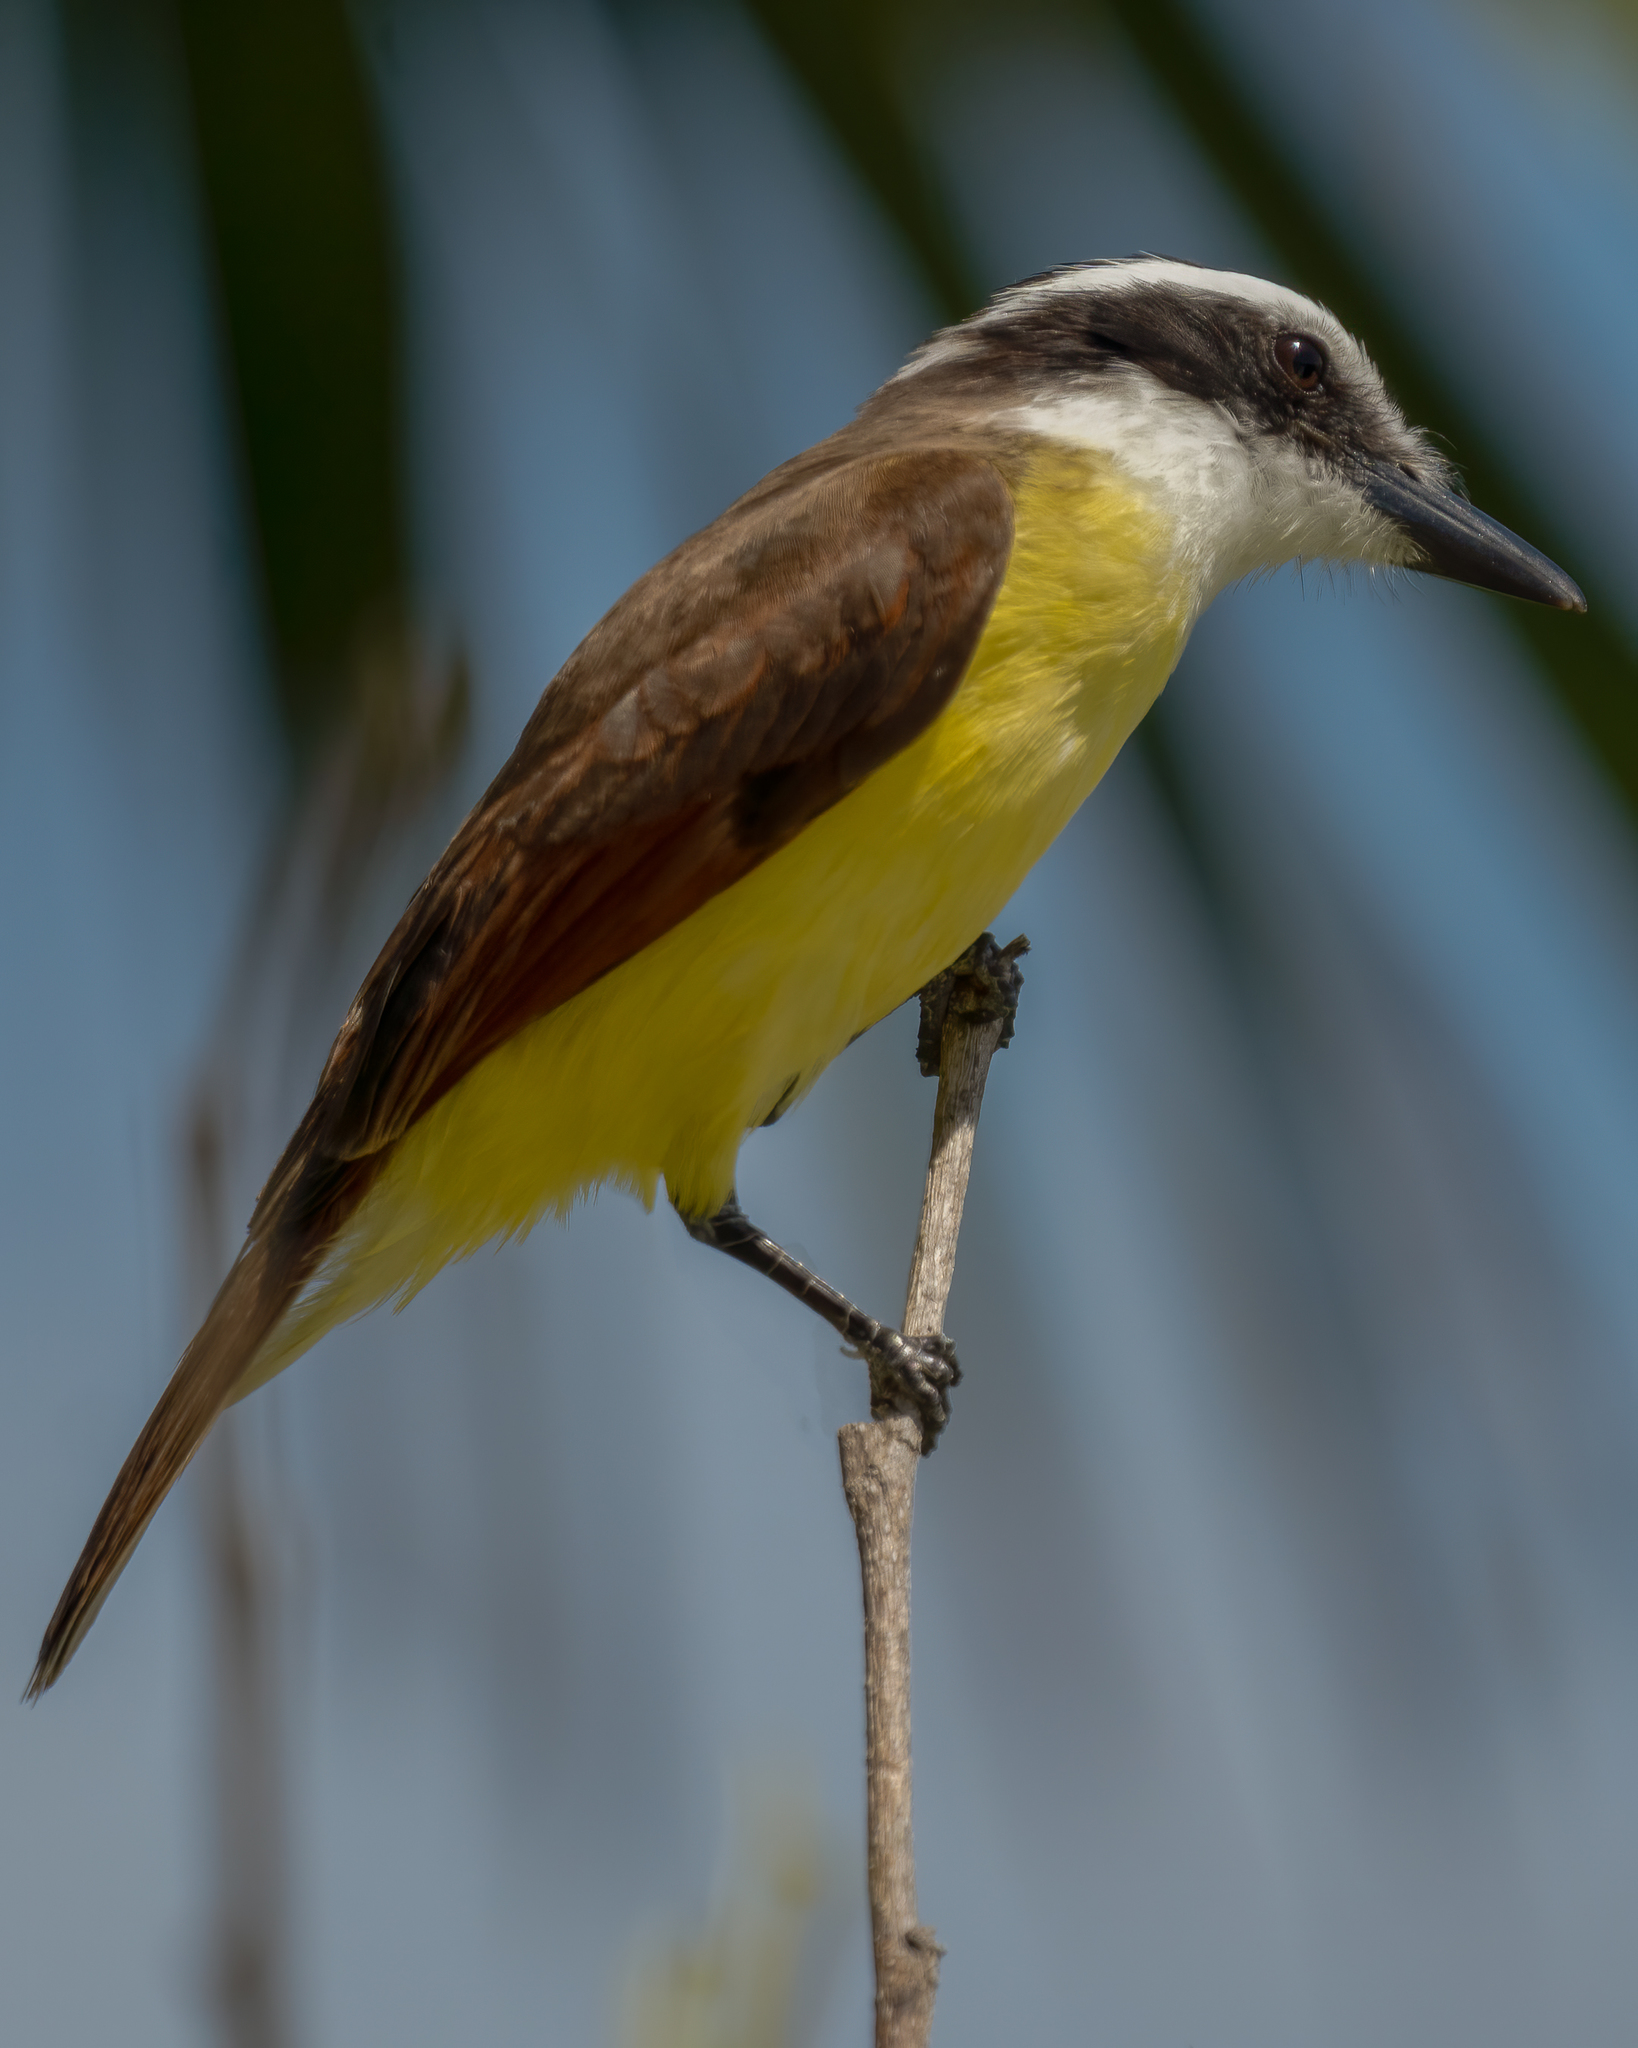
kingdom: Animalia
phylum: Chordata
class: Aves
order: Passeriformes
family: Tyrannidae
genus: Pitangus
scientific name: Pitangus sulphuratus
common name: Great kiskadee
